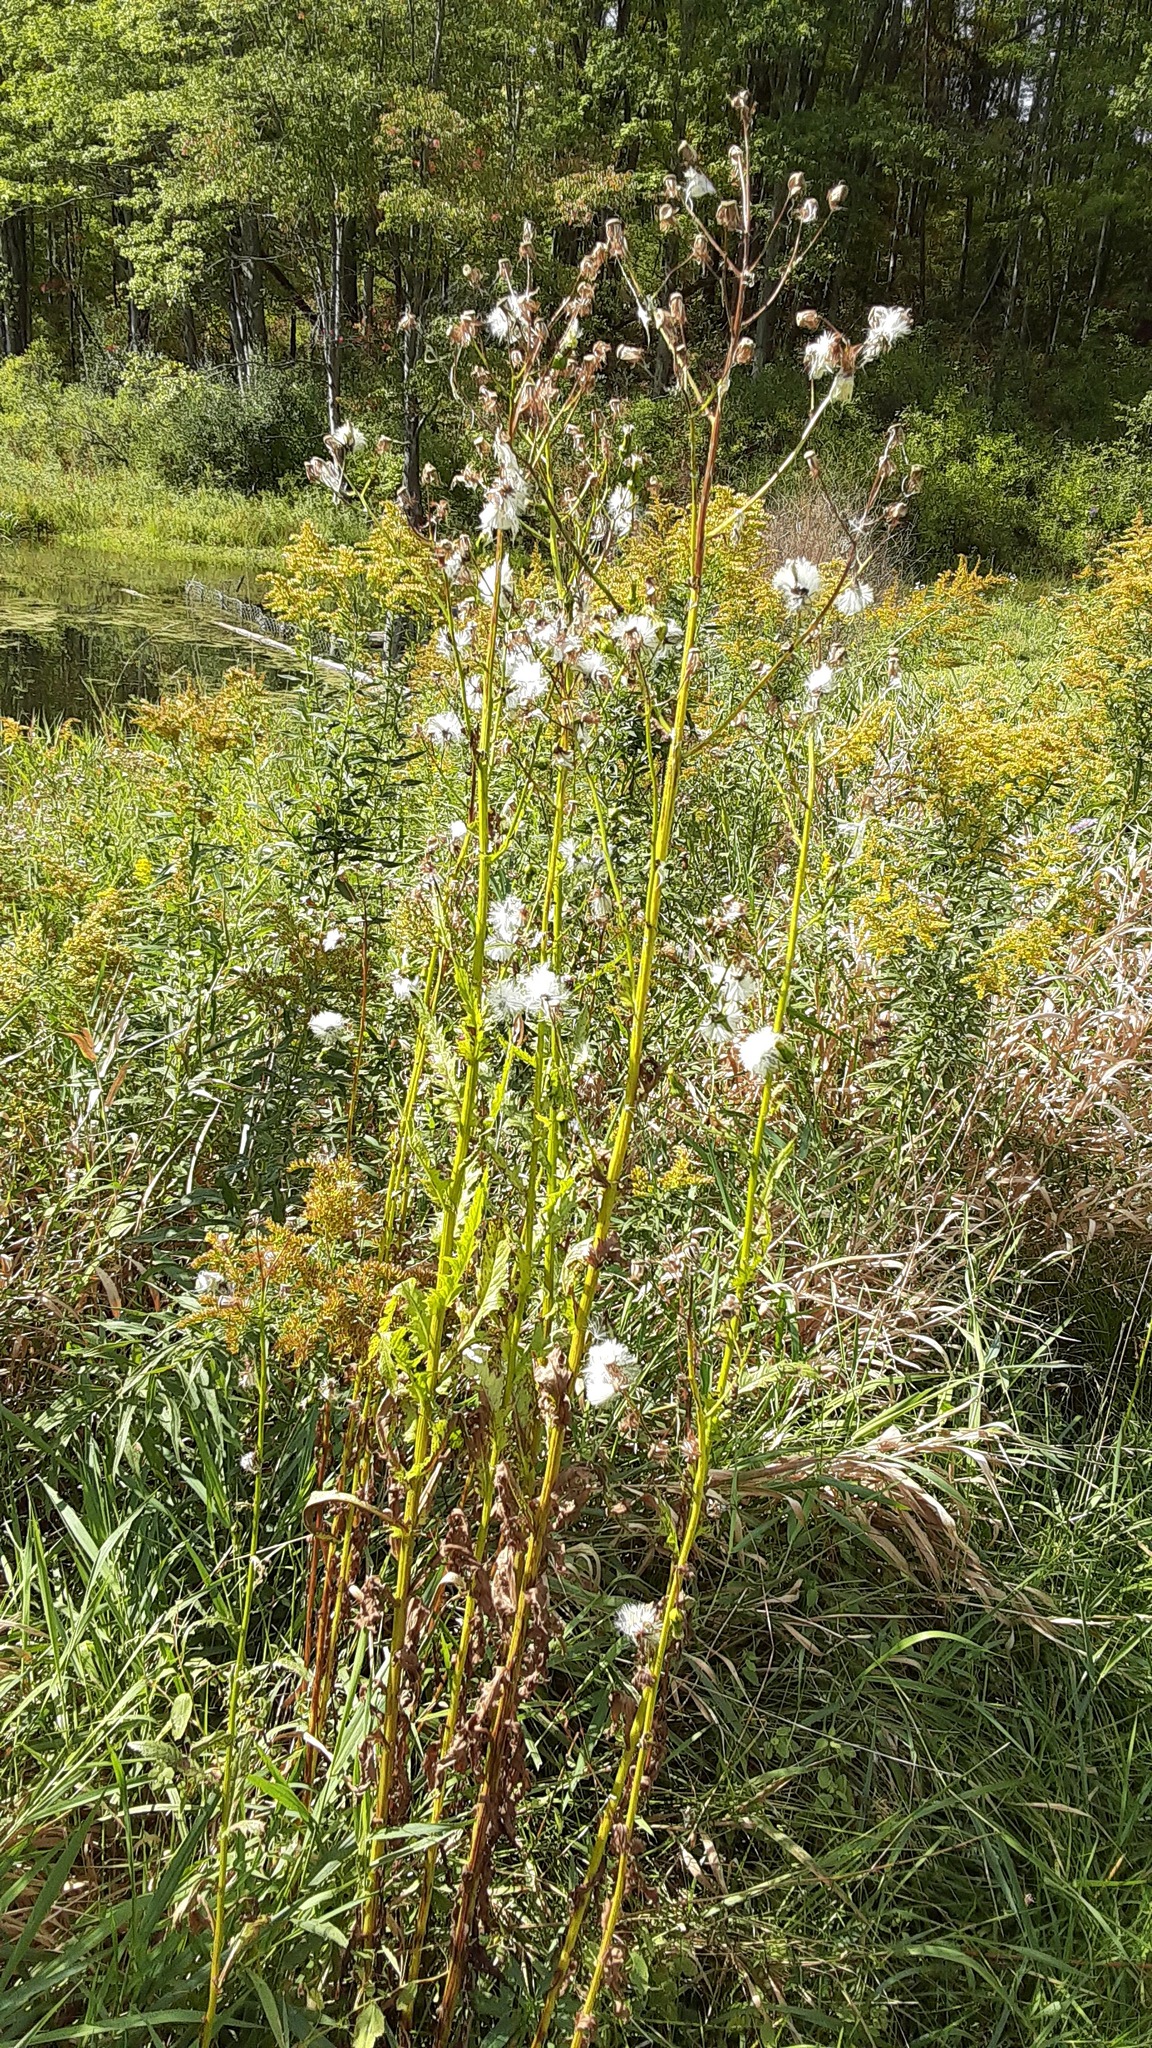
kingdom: Plantae
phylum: Tracheophyta
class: Magnoliopsida
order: Asterales
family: Asteraceae
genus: Erechtites
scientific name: Erechtites hieraciifolius
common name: American burnweed
